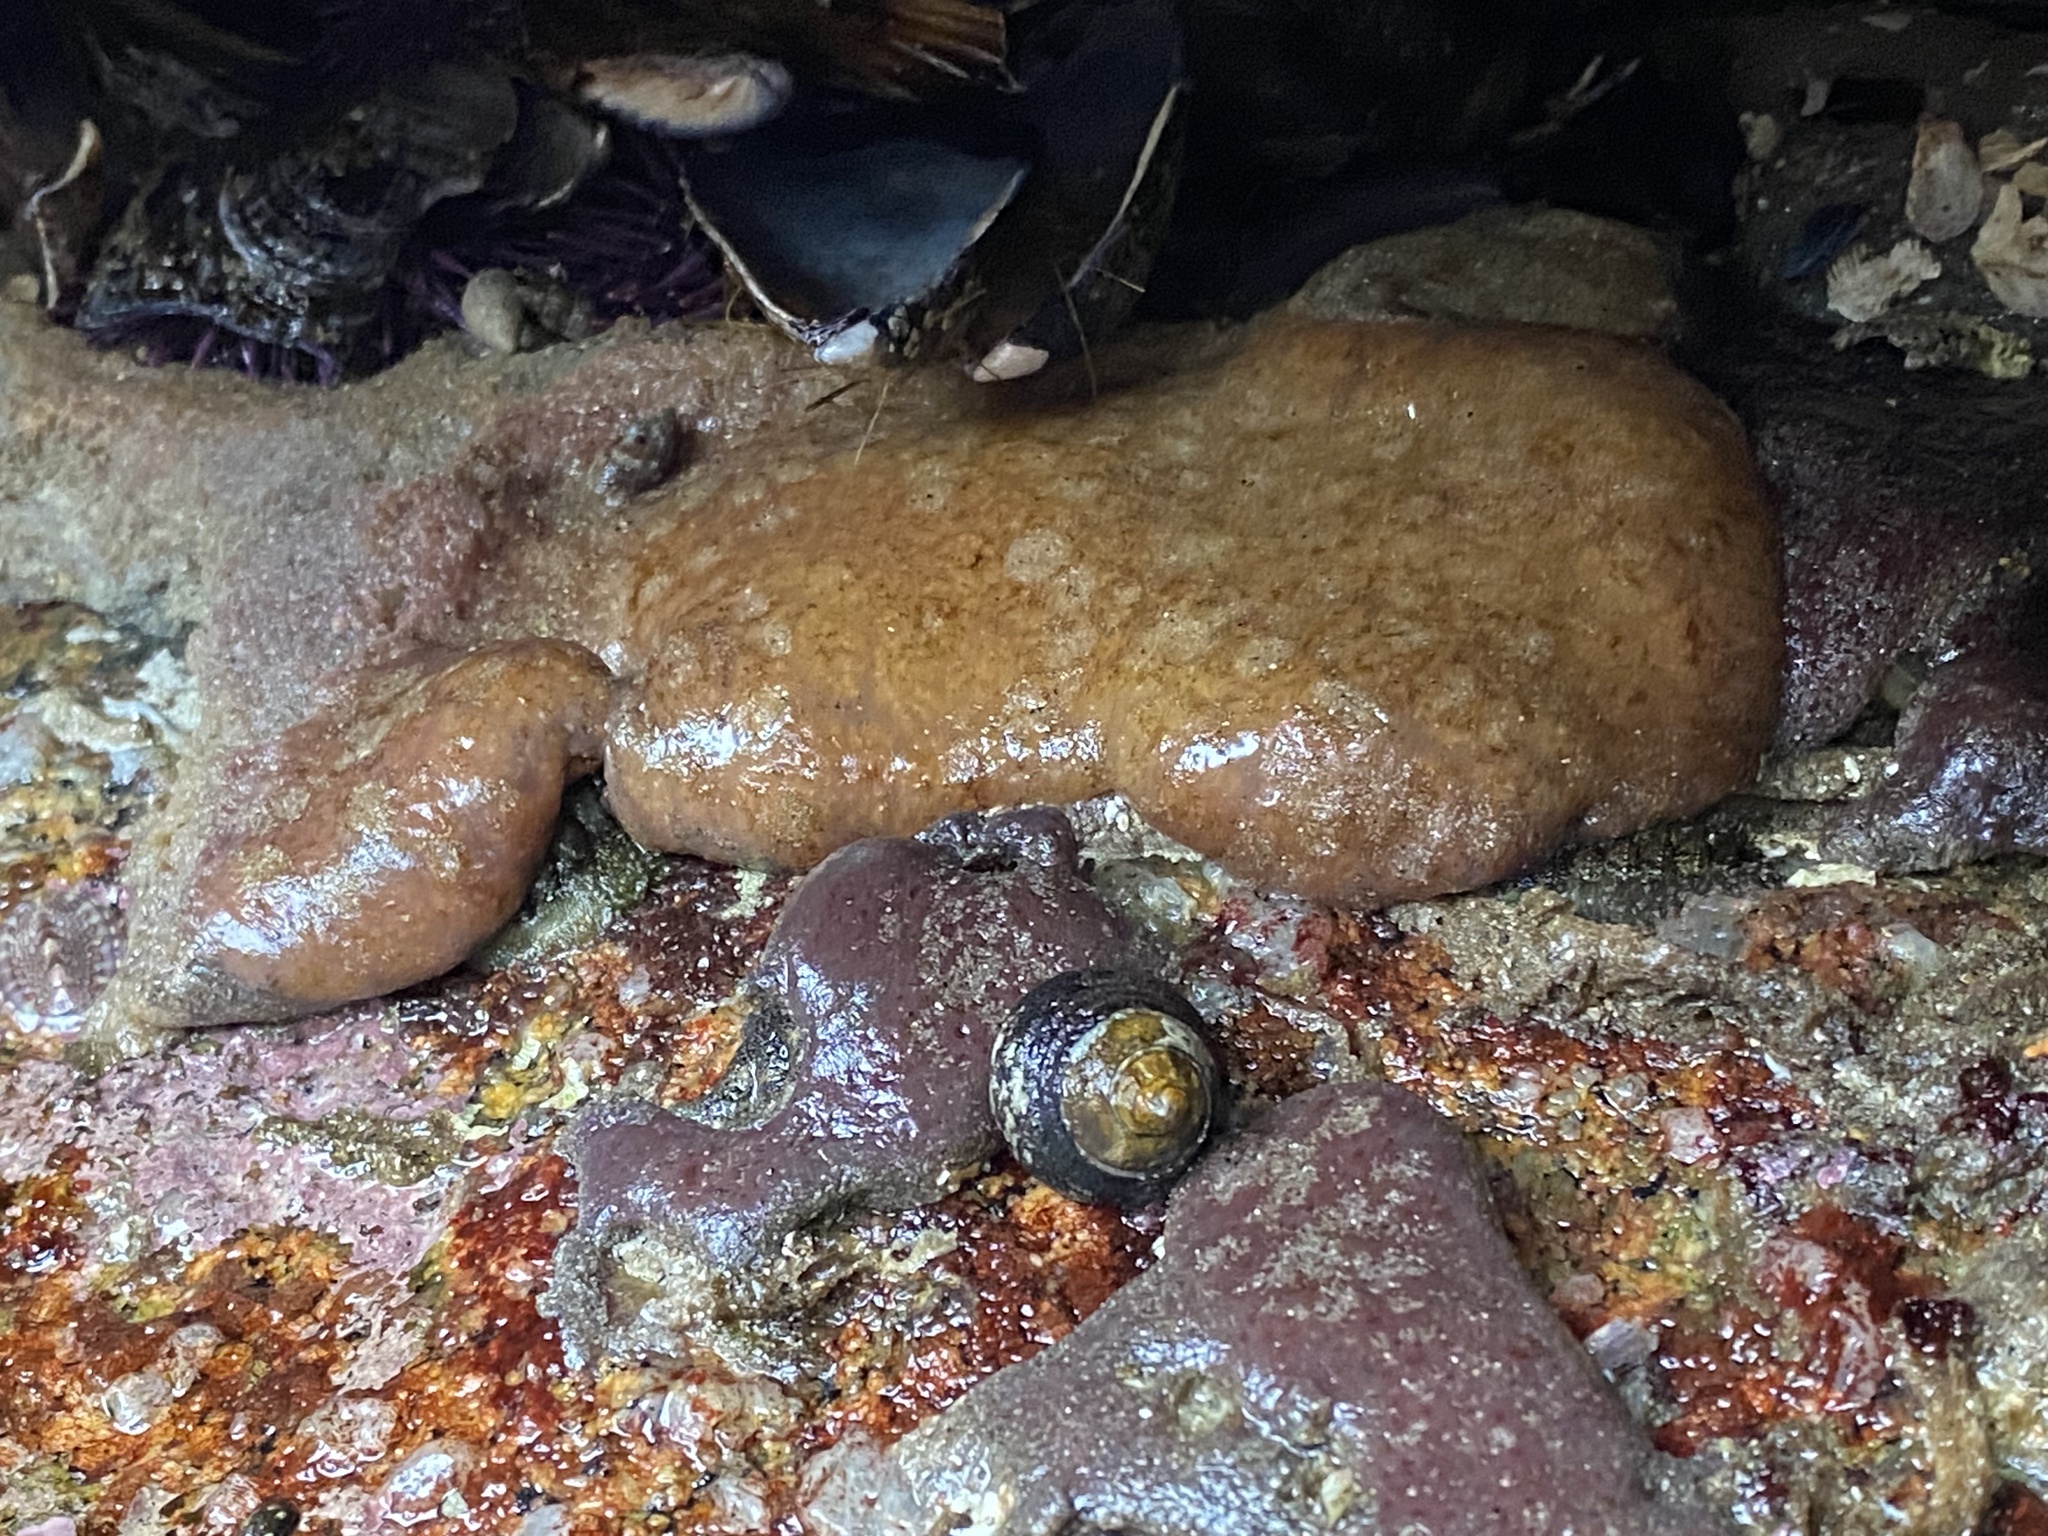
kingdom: Animalia
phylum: Chordata
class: Ascidiacea
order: Aplousobranchia
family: Polyclinidae
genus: Aplidium
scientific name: Aplidium californicum
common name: Sea pork
